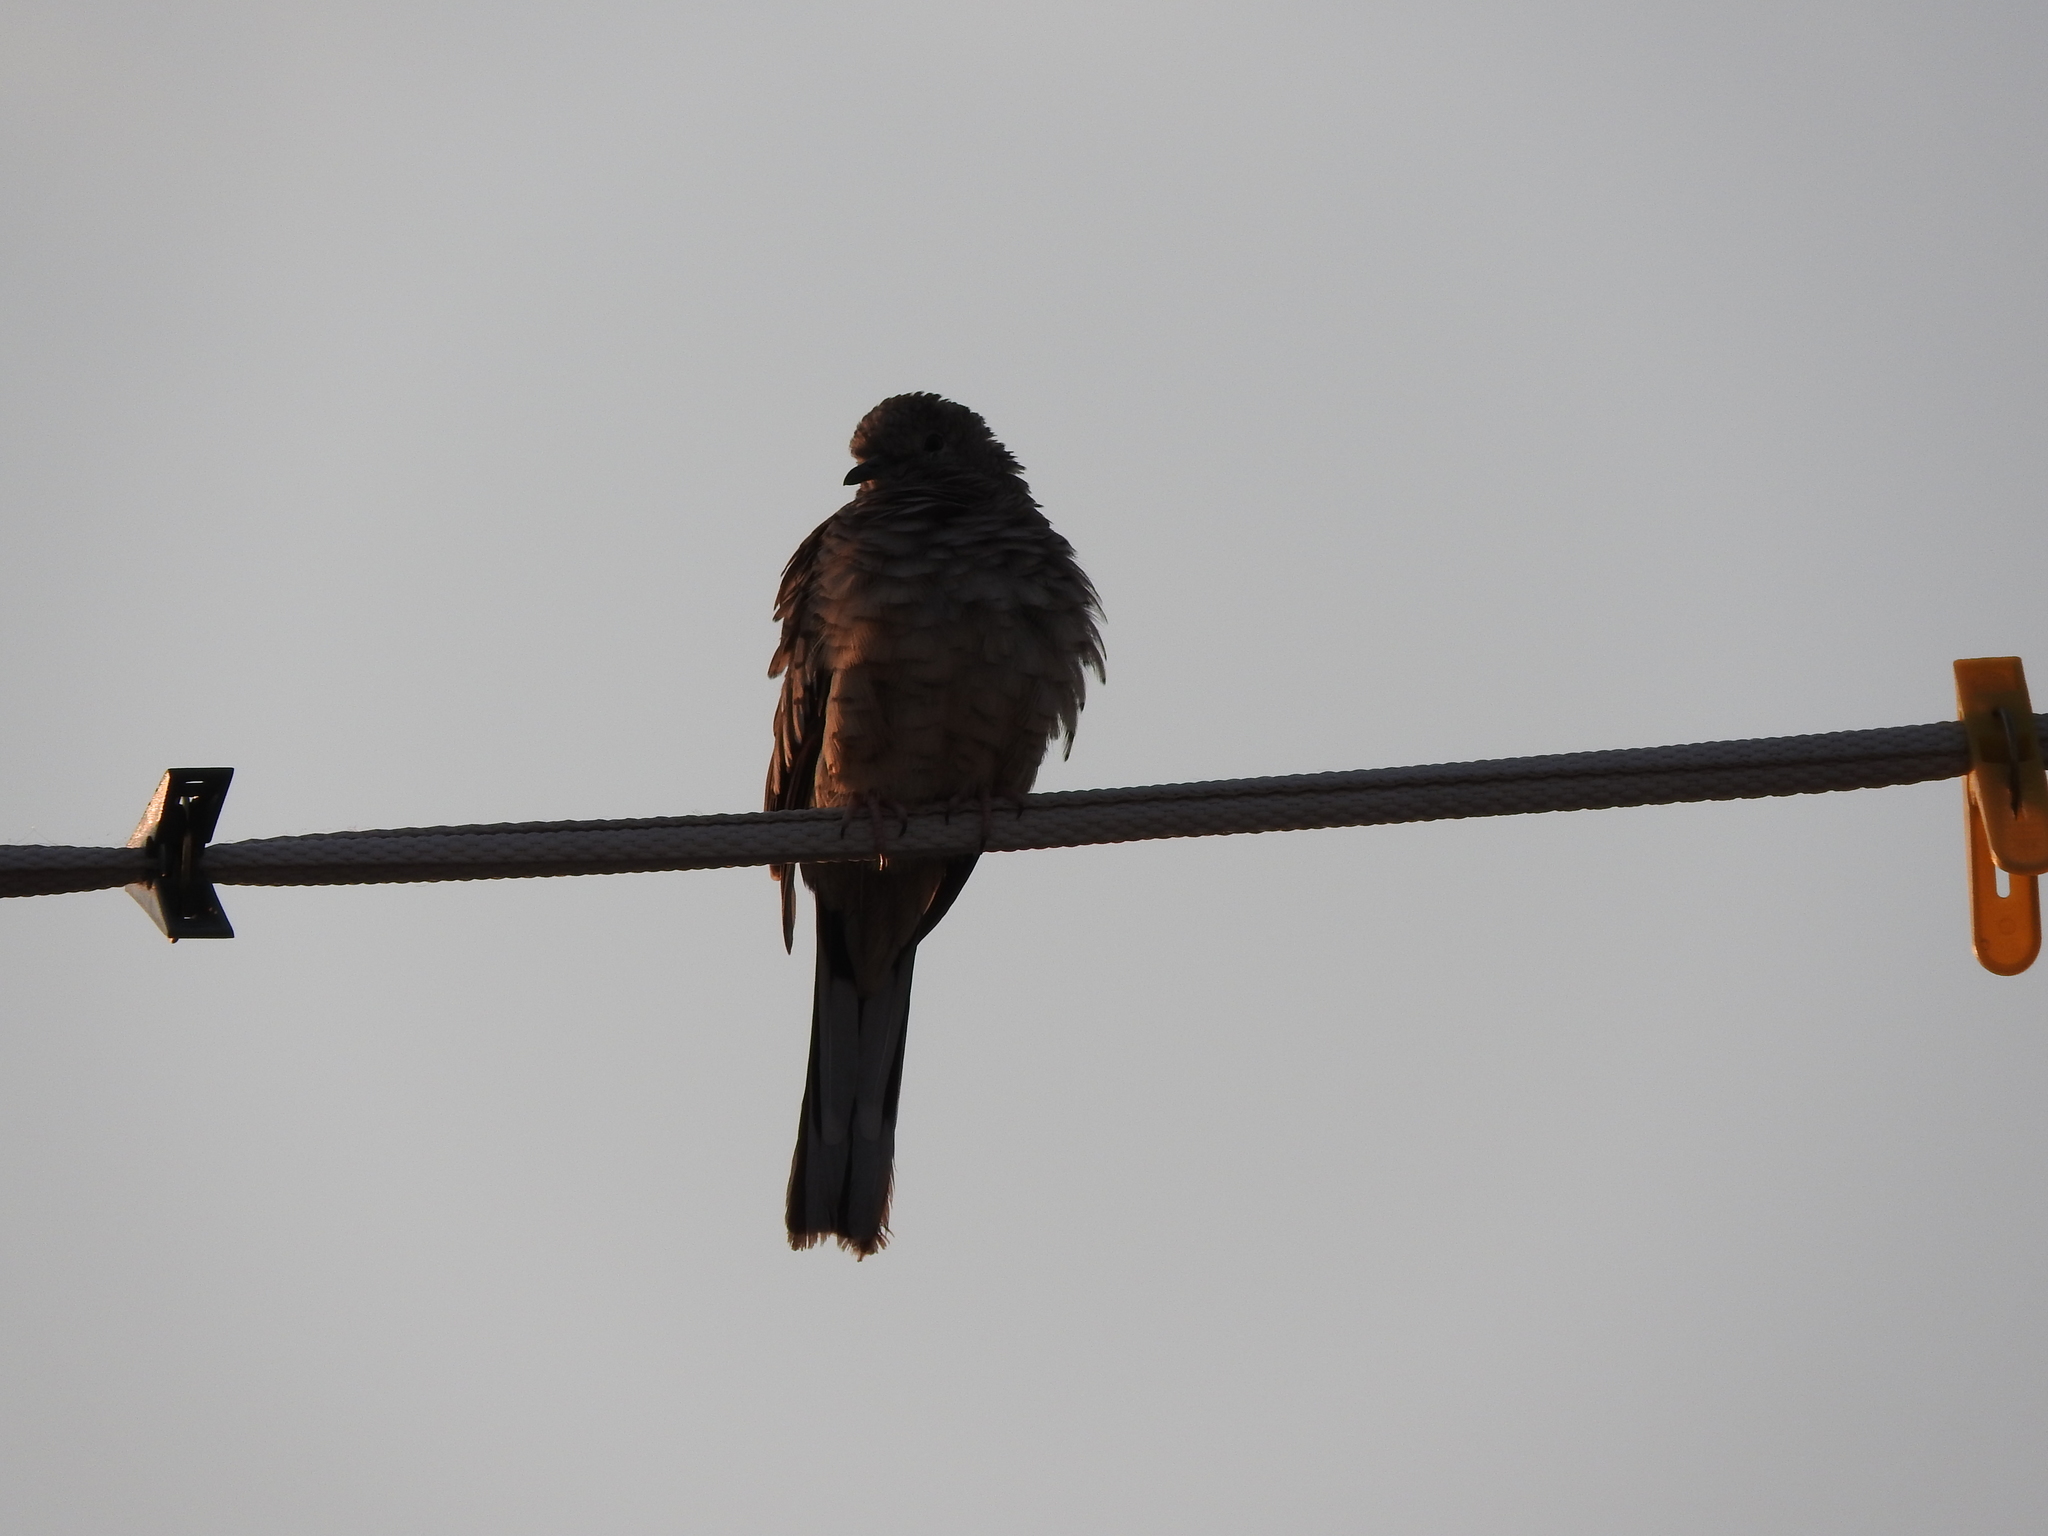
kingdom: Animalia
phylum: Chordata
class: Aves
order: Columbiformes
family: Columbidae
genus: Columbina
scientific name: Columbina inca
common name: Inca dove
